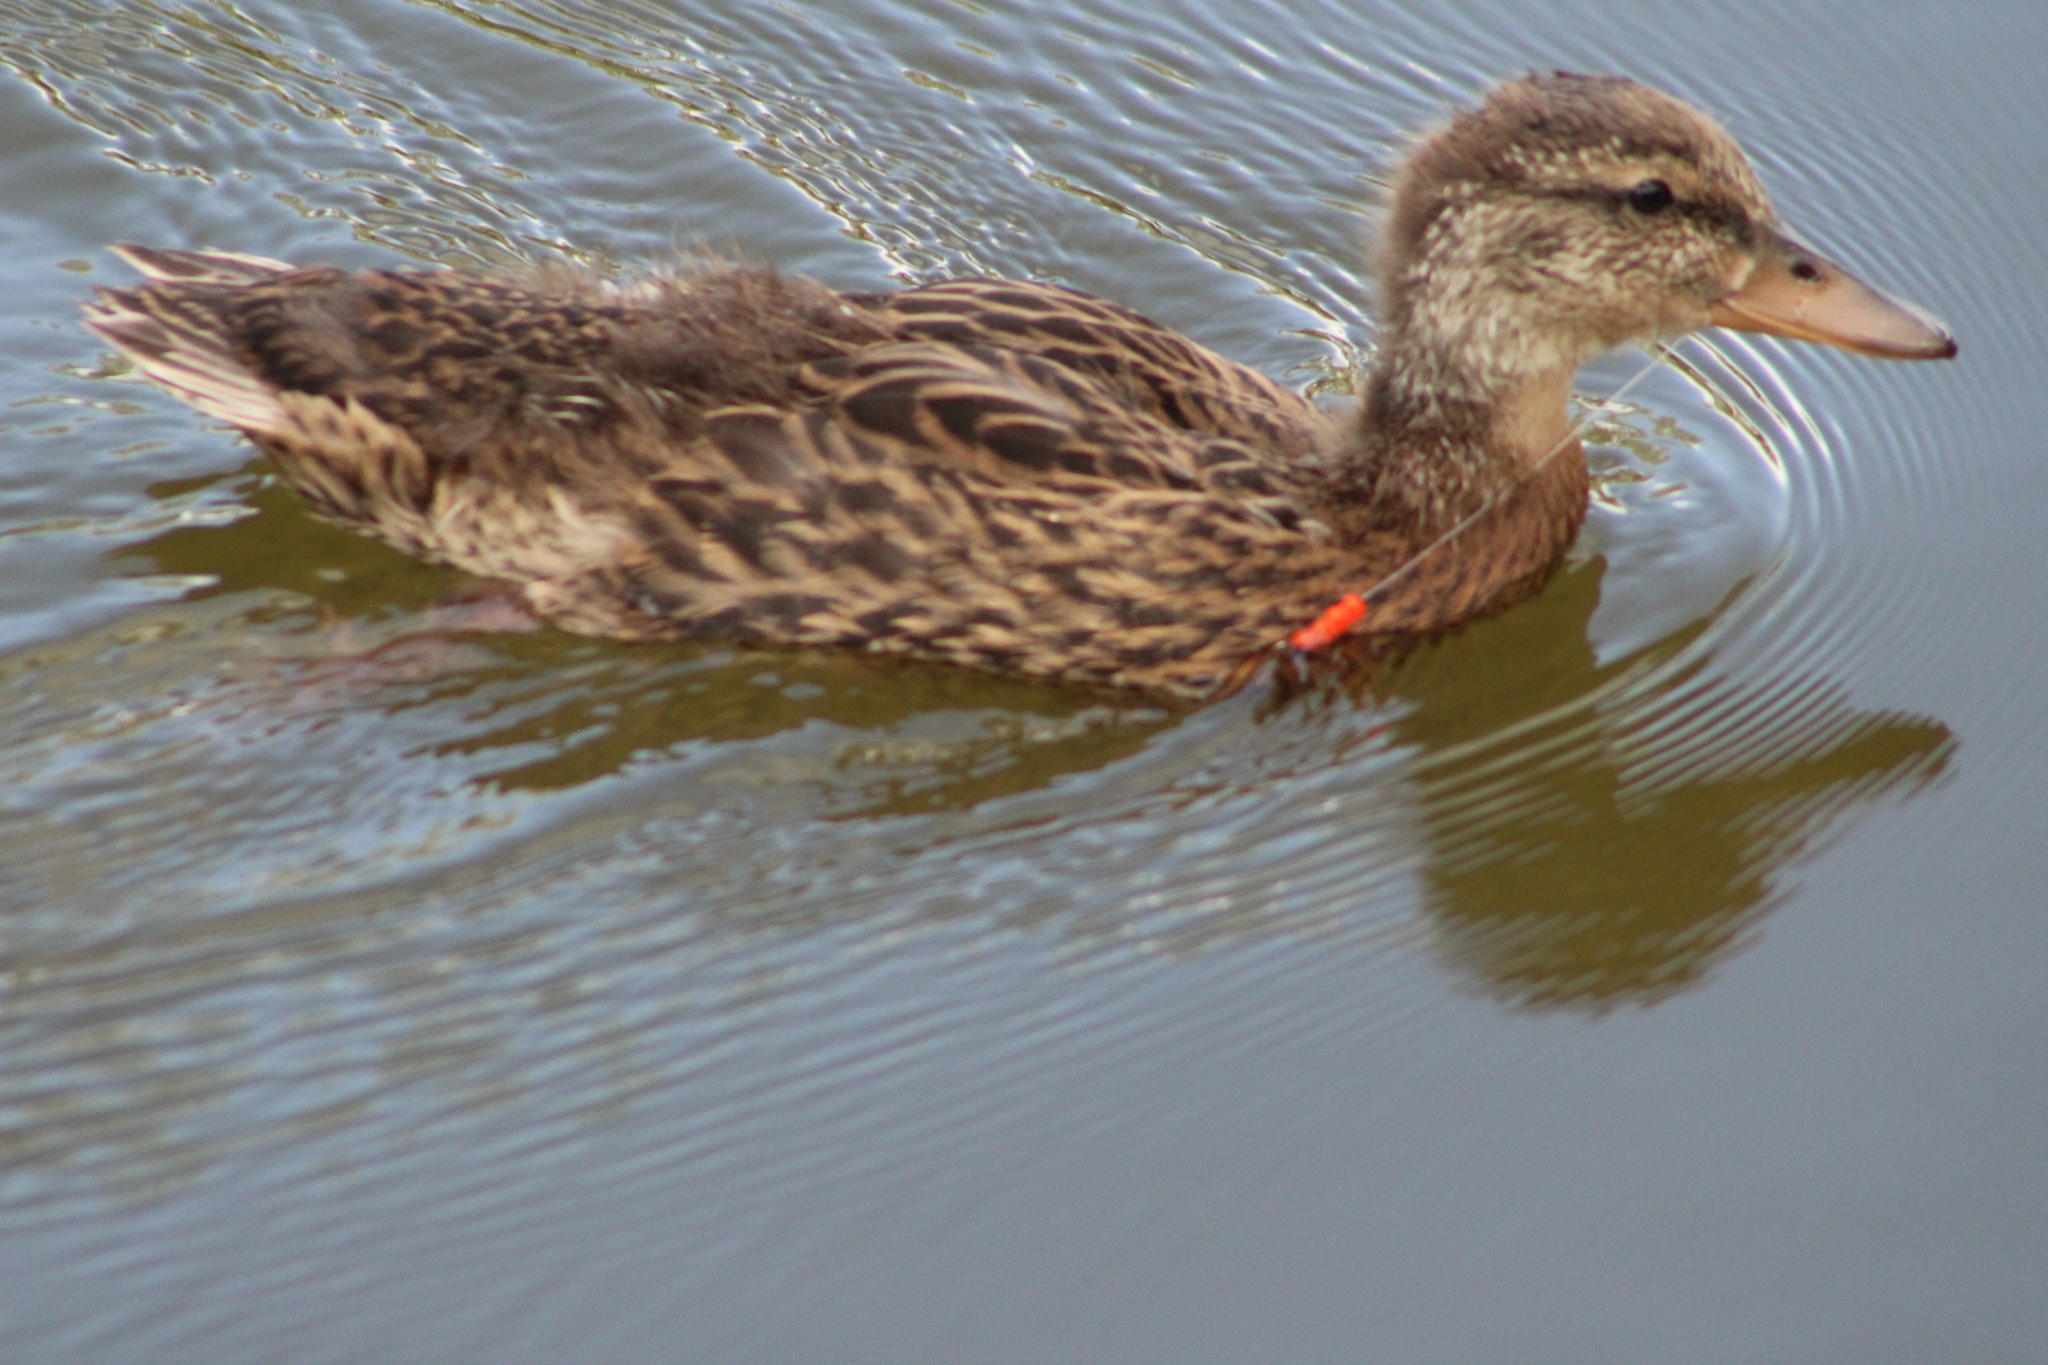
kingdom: Animalia
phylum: Chordata
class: Aves
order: Anseriformes
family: Anatidae
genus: Anas
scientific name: Anas platyrhynchos
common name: Mallard
